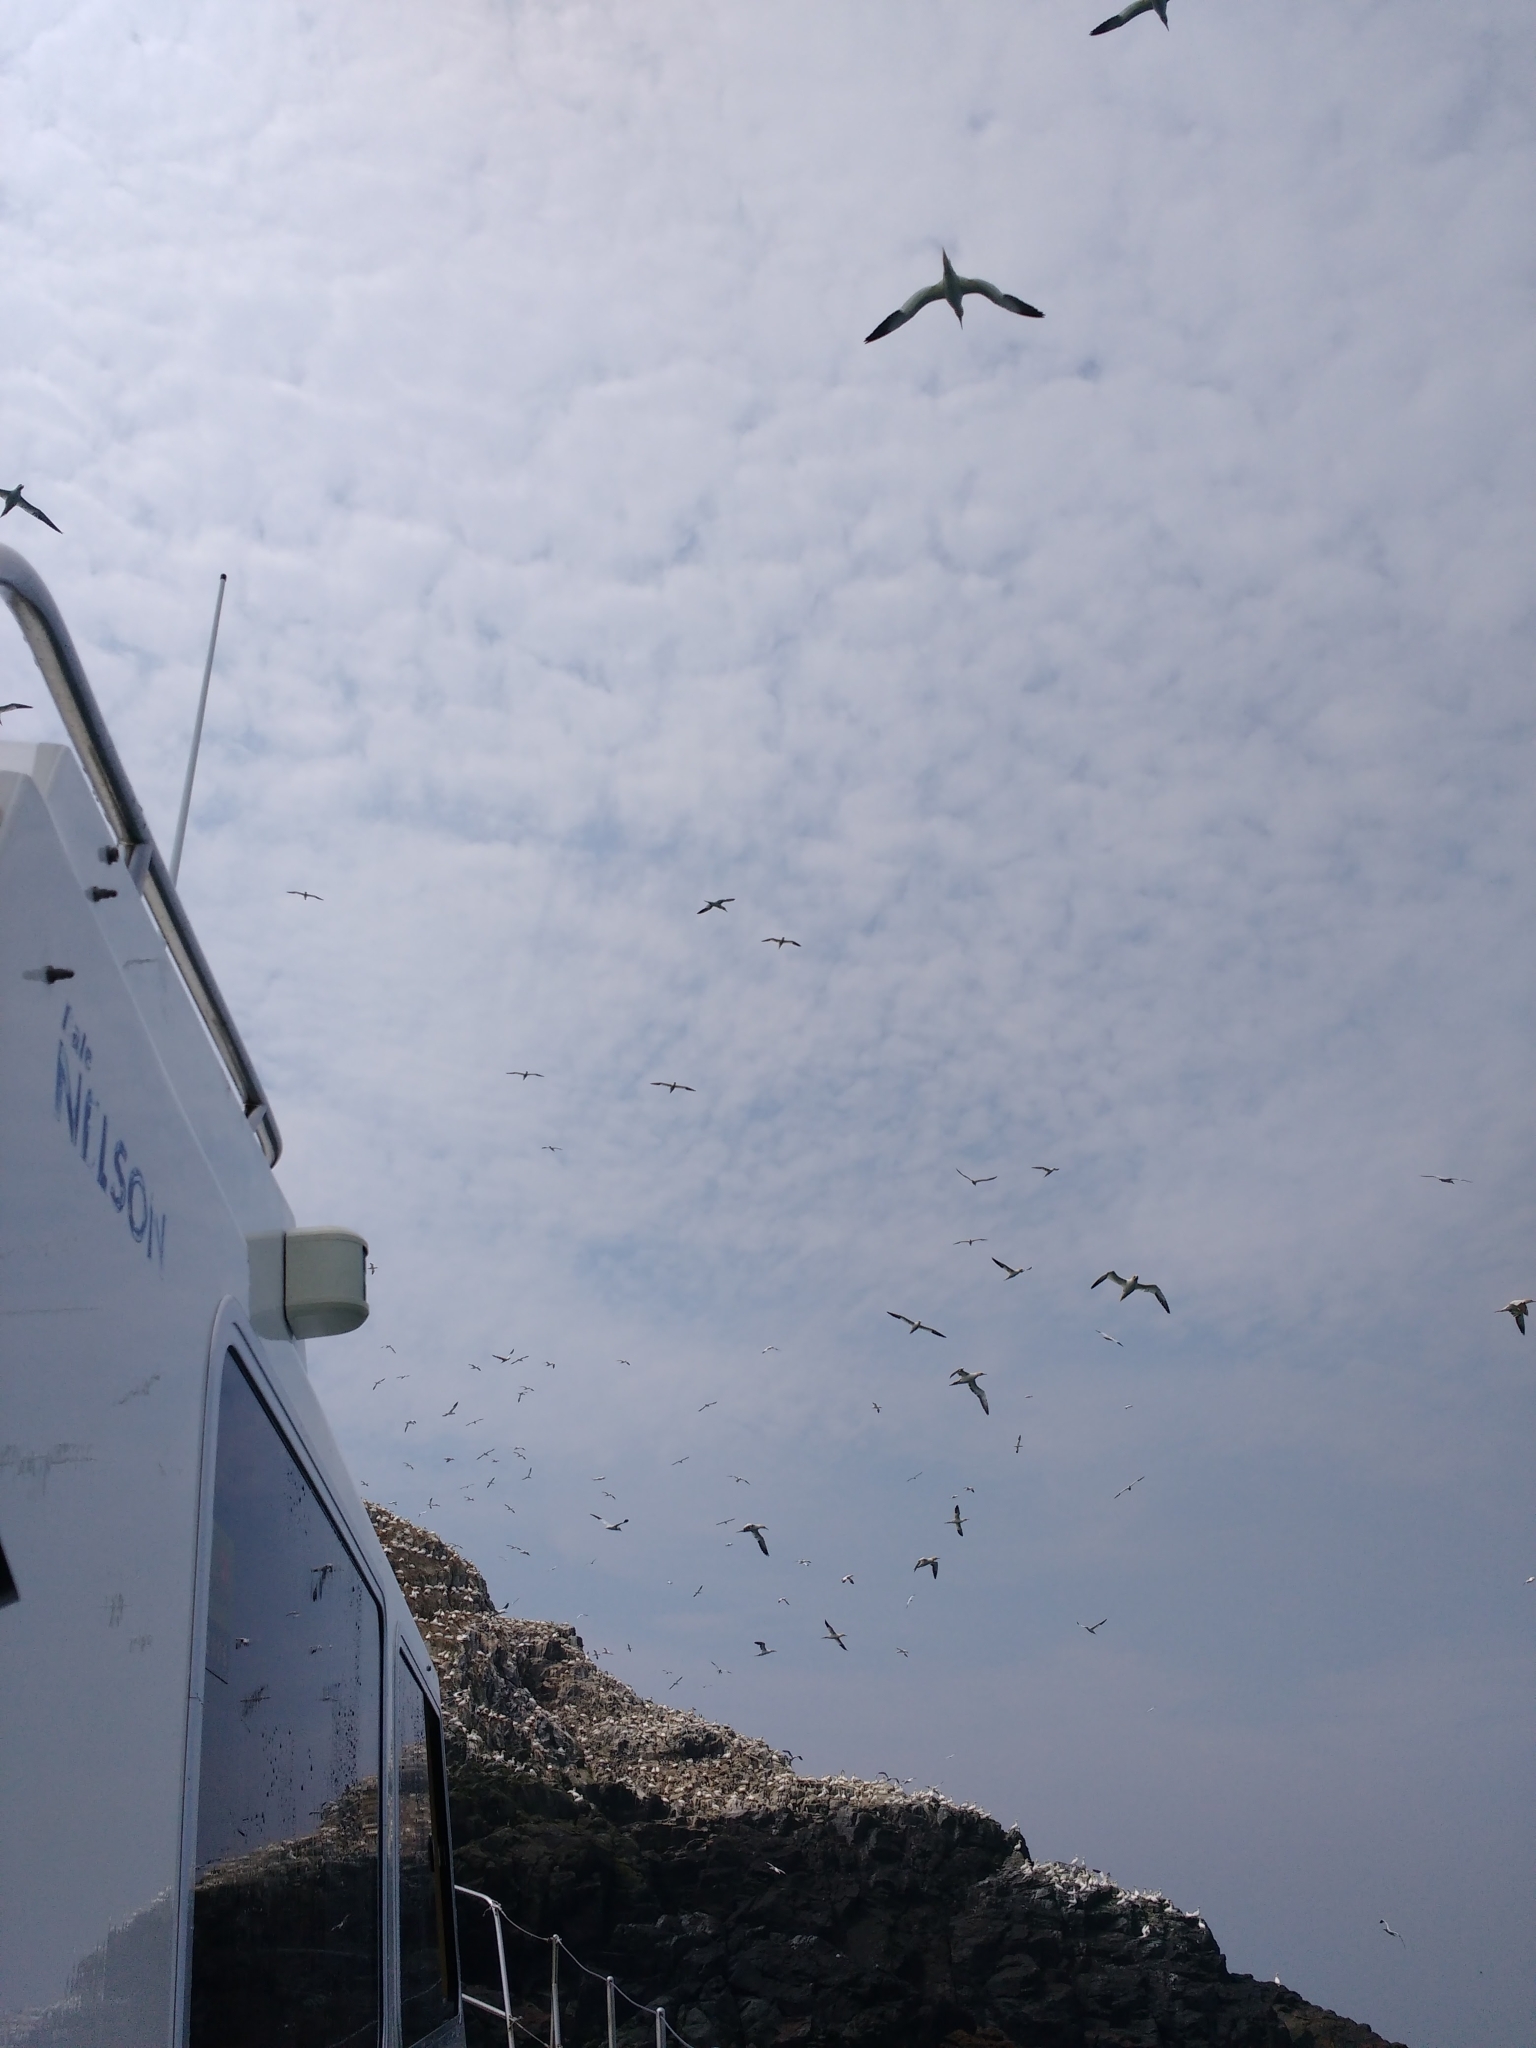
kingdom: Animalia
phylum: Chordata
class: Aves
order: Suliformes
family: Sulidae
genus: Morus
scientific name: Morus bassanus
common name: Northern gannet
